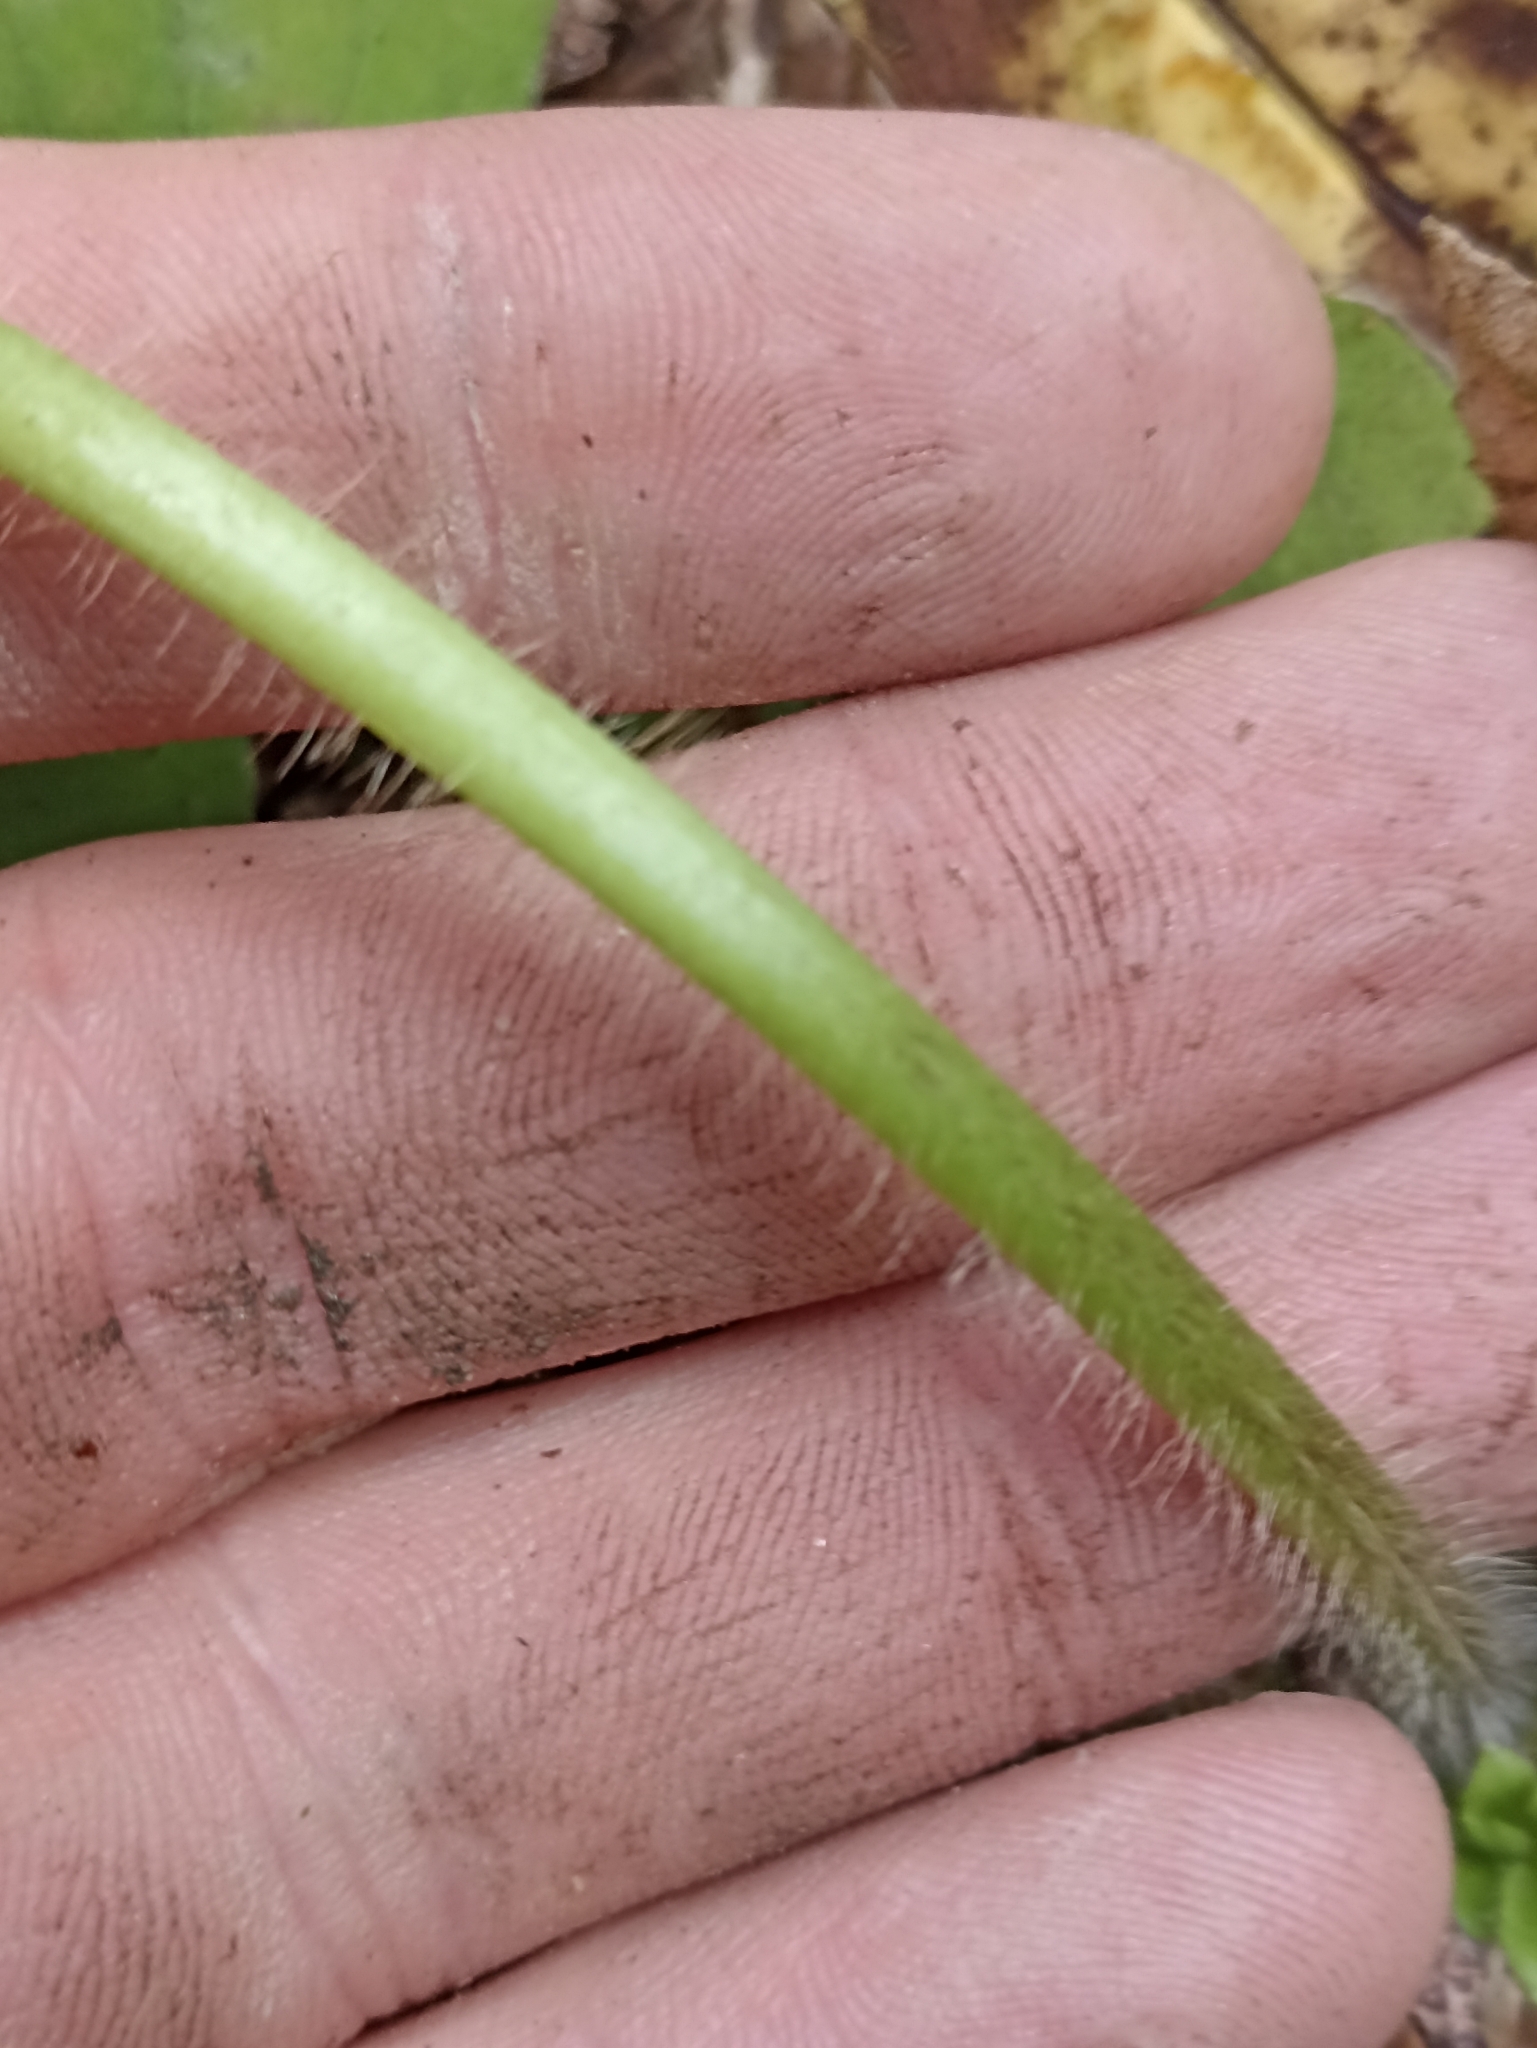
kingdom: Plantae
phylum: Tracheophyta
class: Magnoliopsida
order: Ranunculales
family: Ranunculaceae
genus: Ranunculus
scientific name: Ranunculus reflexus
